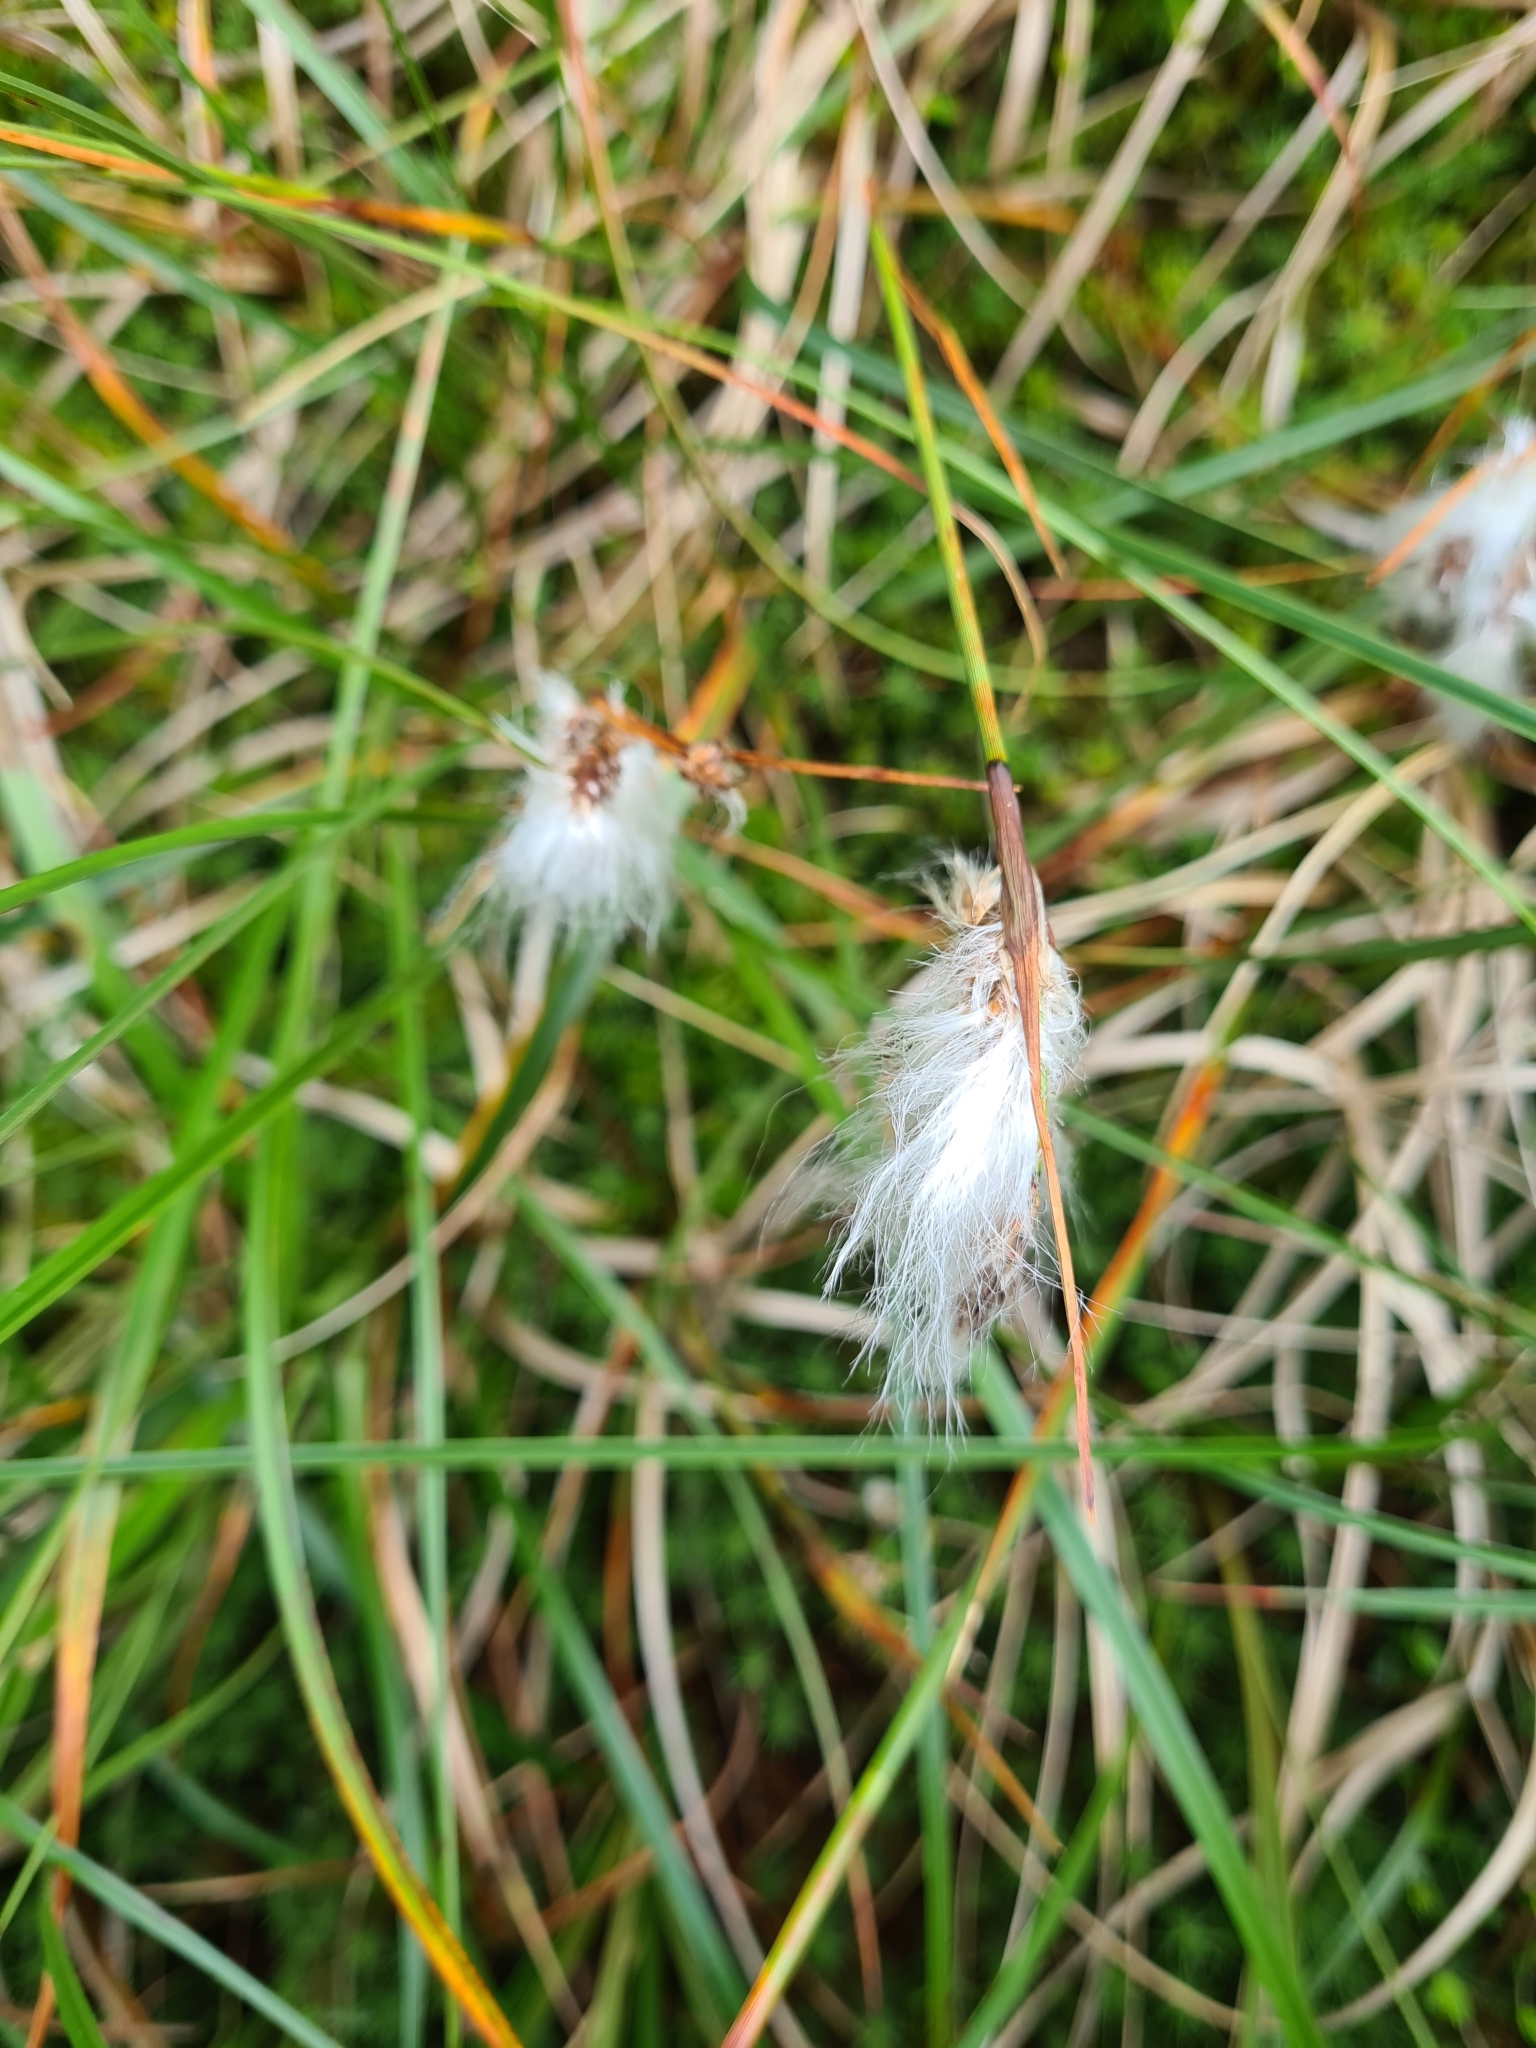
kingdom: Plantae
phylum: Tracheophyta
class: Liliopsida
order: Poales
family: Cyperaceae
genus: Eriophorum
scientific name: Eriophorum angustifolium
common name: Common cottongrass
